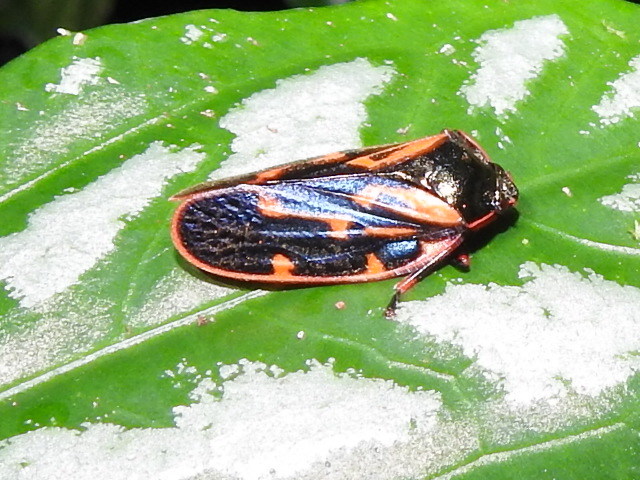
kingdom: Animalia
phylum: Arthropoda
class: Insecta
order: Hemiptera
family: Cercopidae
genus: Mahanarva
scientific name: Mahanarva costaricensis
